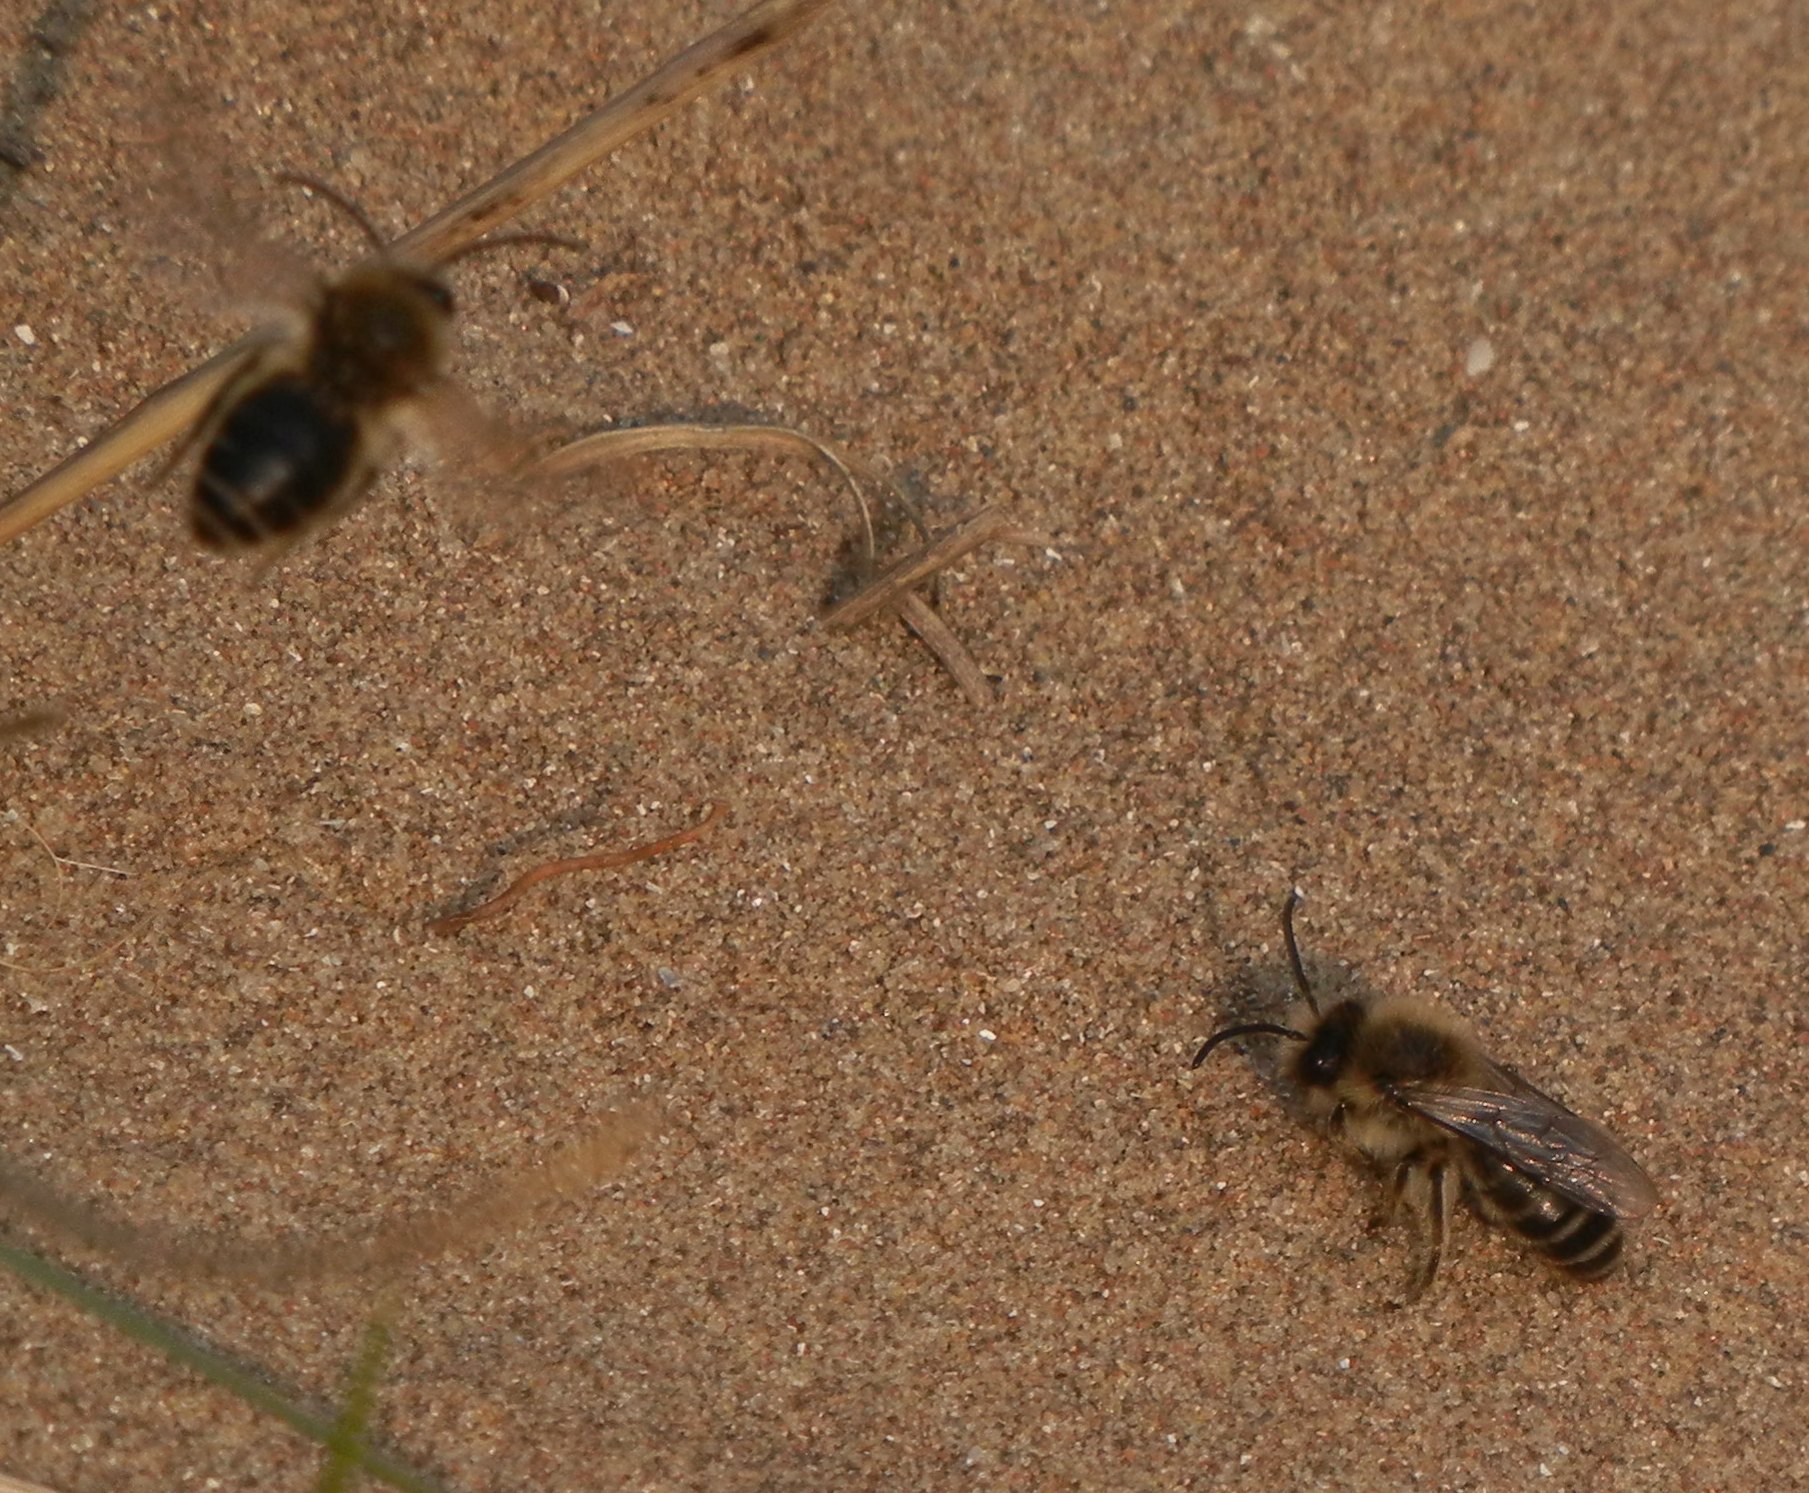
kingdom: Animalia
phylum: Arthropoda
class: Insecta
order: Hymenoptera
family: Colletidae
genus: Colletes
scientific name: Colletes cunicularius
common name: Early colletes
